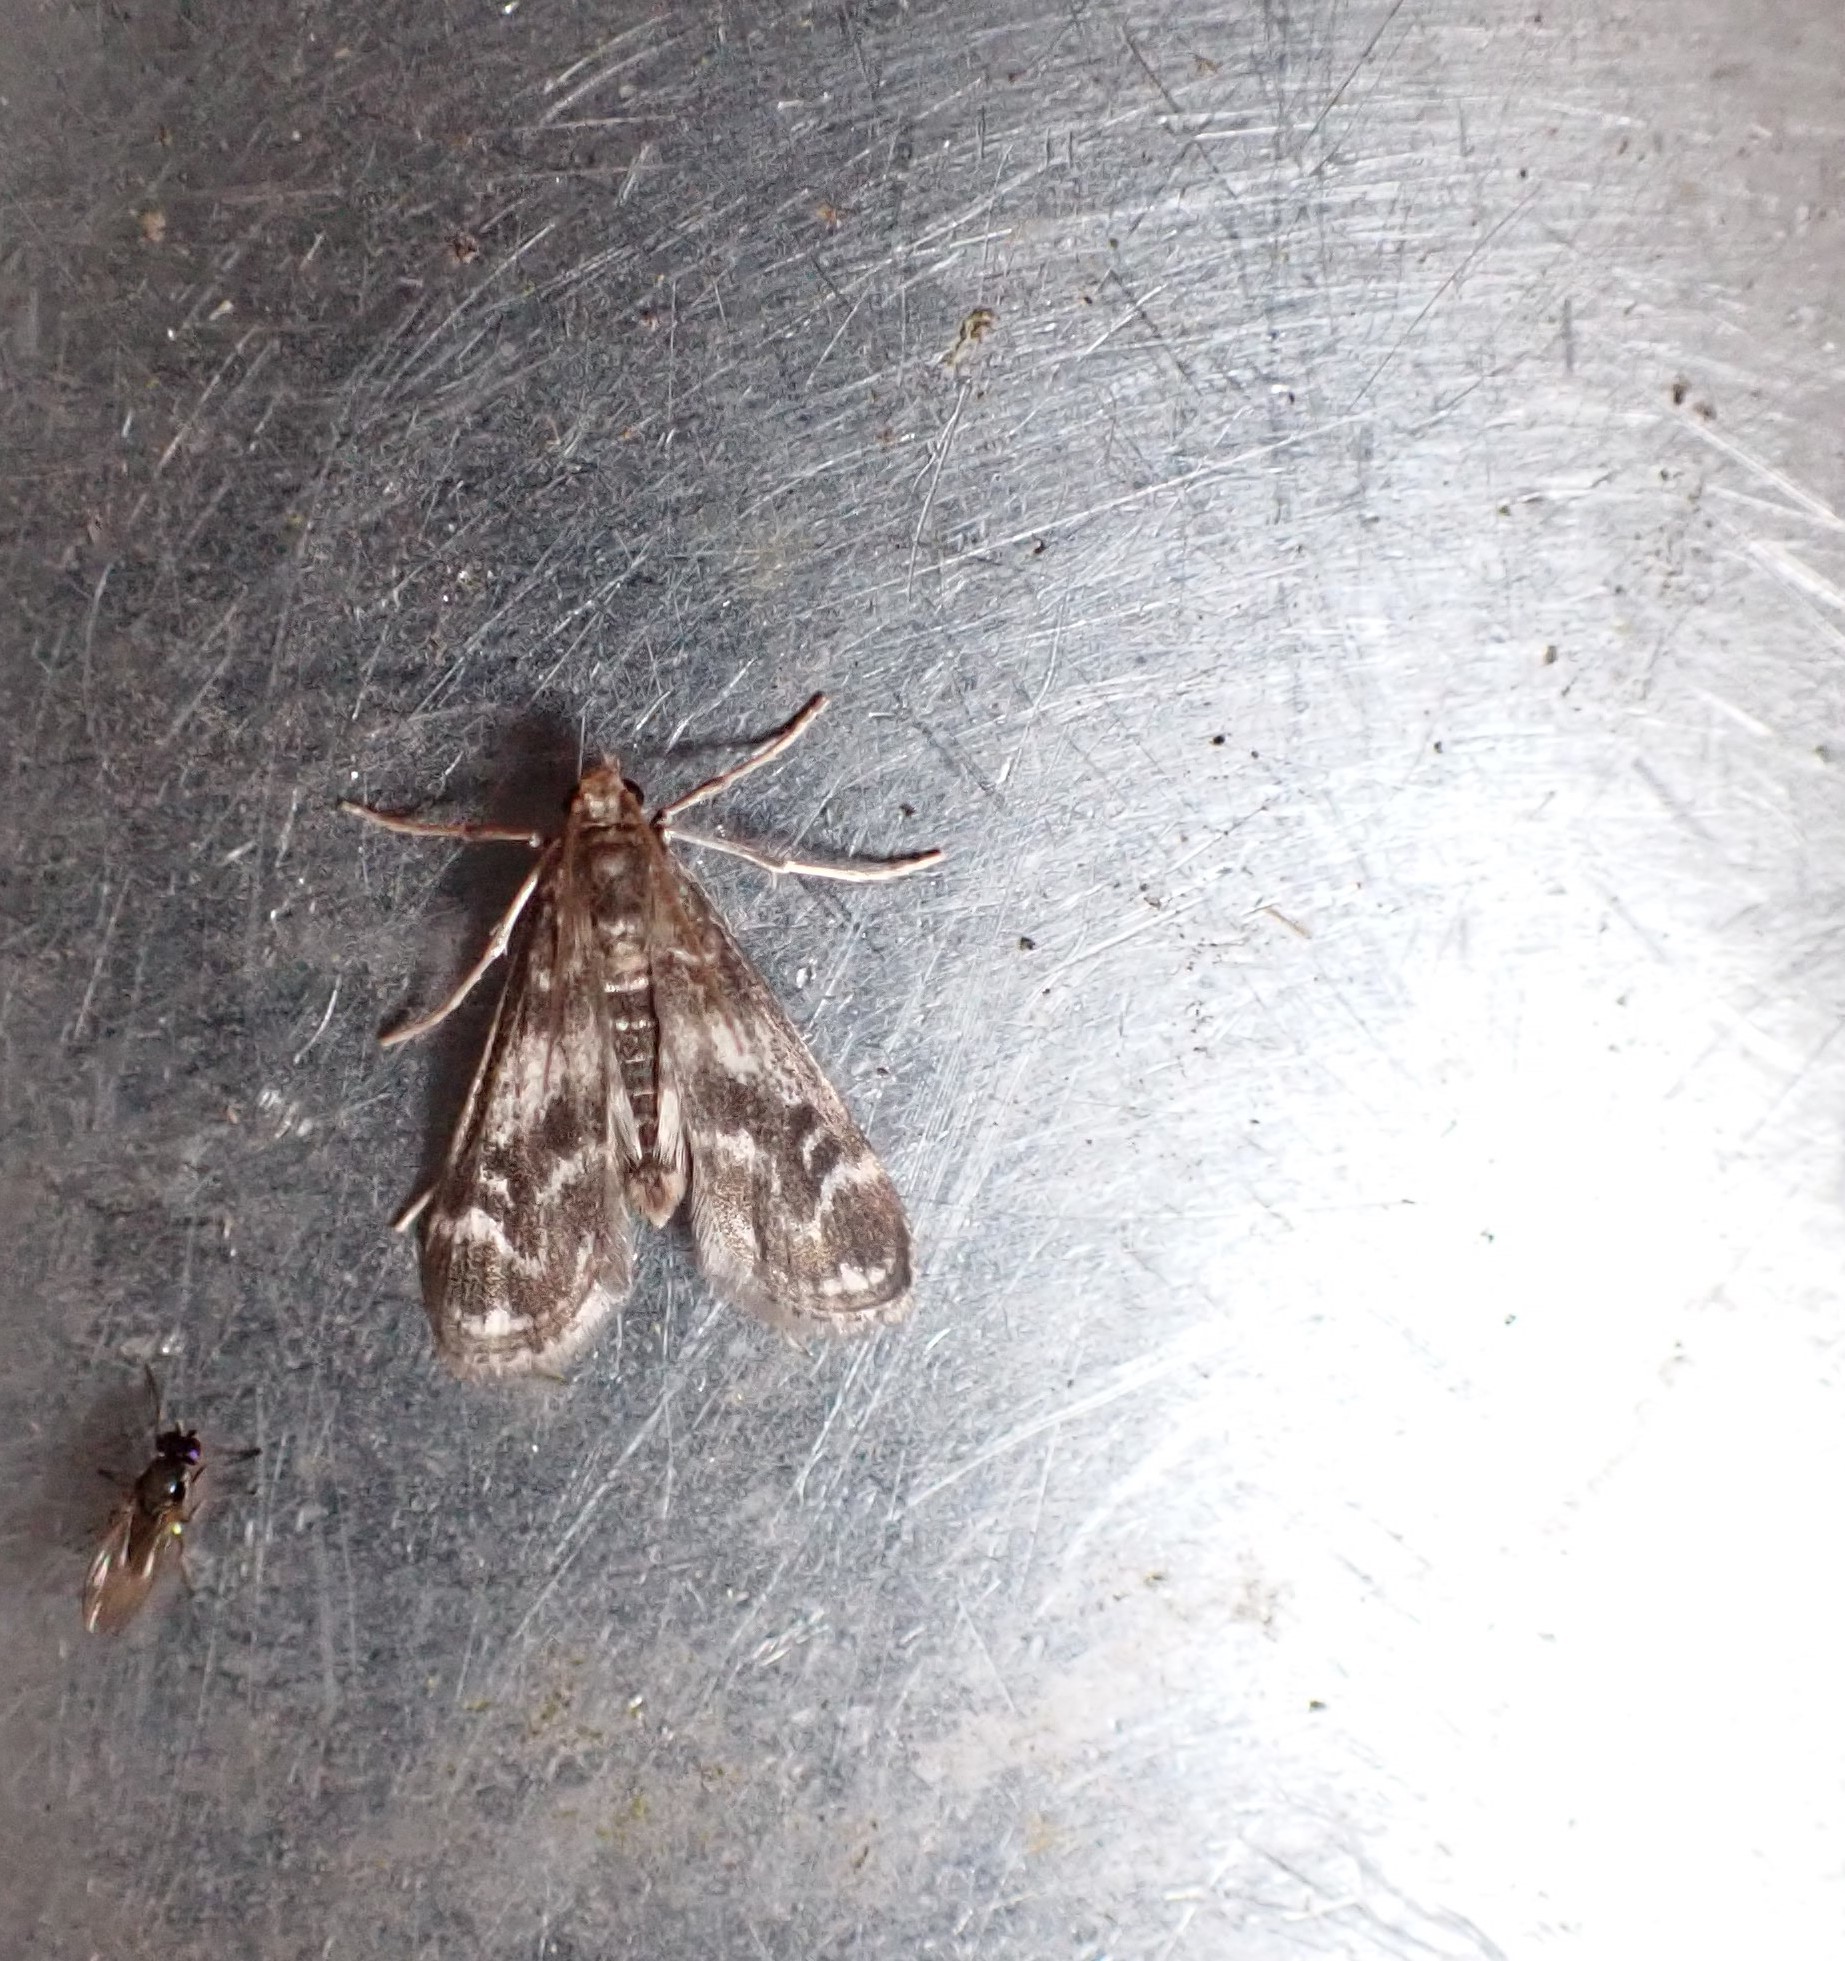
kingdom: Animalia
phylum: Arthropoda
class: Insecta
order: Lepidoptera
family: Crambidae
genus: Hygraula
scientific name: Hygraula nitens
